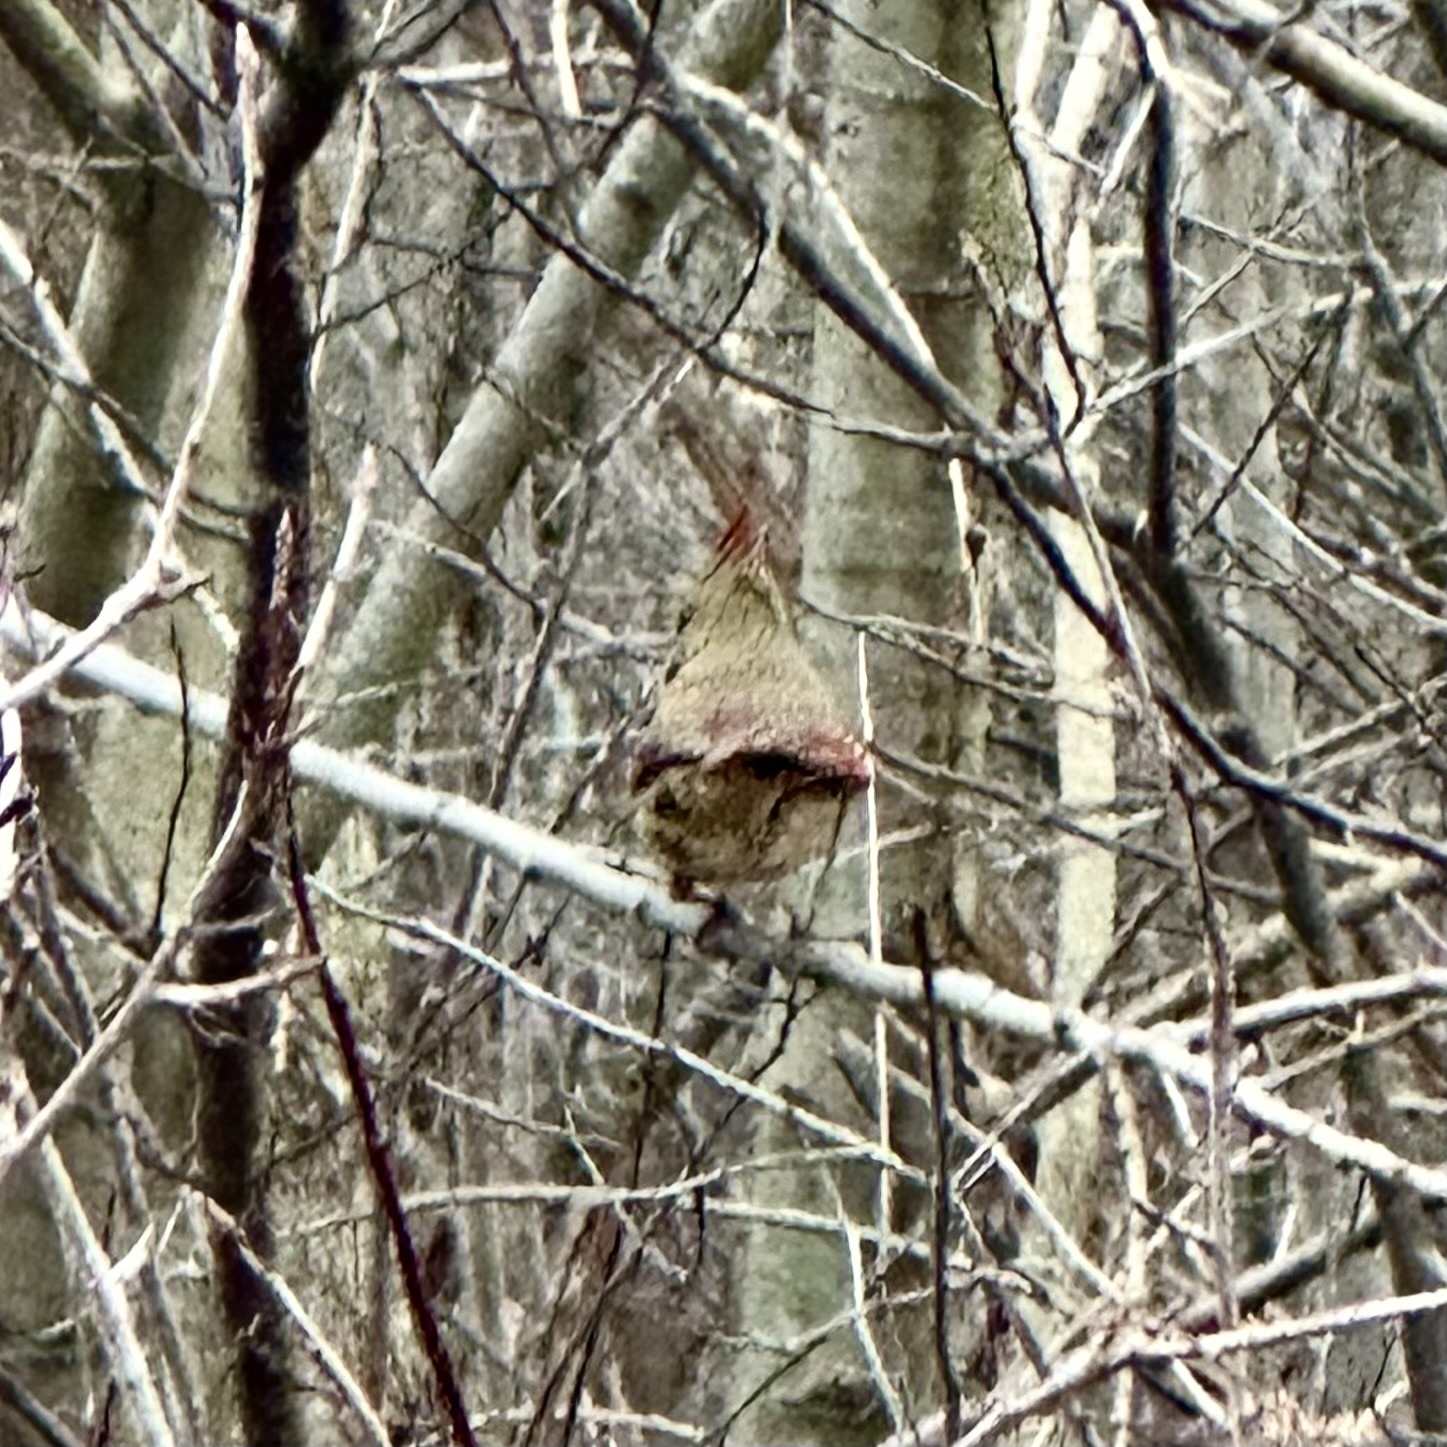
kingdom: Animalia
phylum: Chordata
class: Aves
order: Passeriformes
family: Cardinalidae
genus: Cardinalis
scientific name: Cardinalis cardinalis
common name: Northern cardinal
